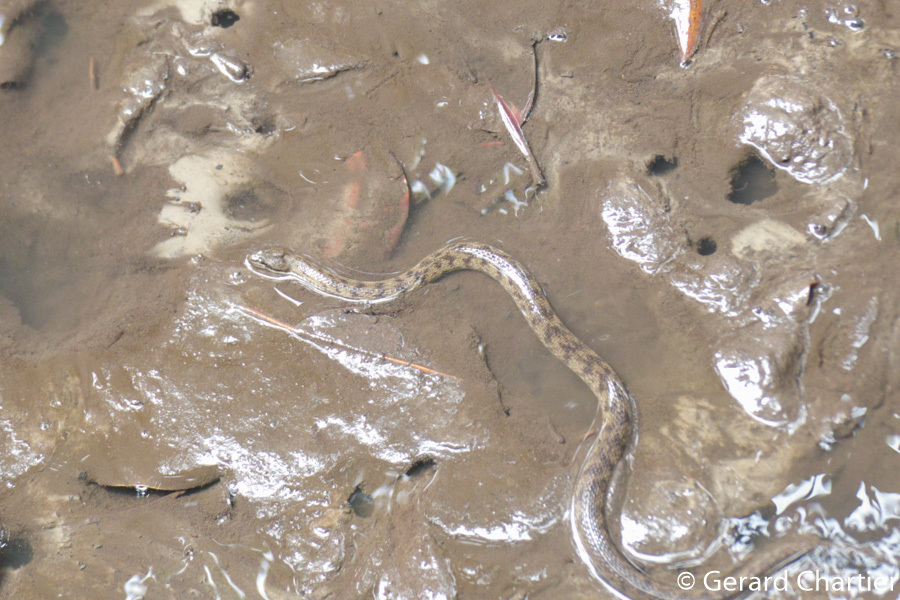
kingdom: Animalia
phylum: Chordata
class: Squamata
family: Homalopsidae
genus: Cerberus
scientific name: Cerberus schneiderii
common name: Southeast asian bockadam
